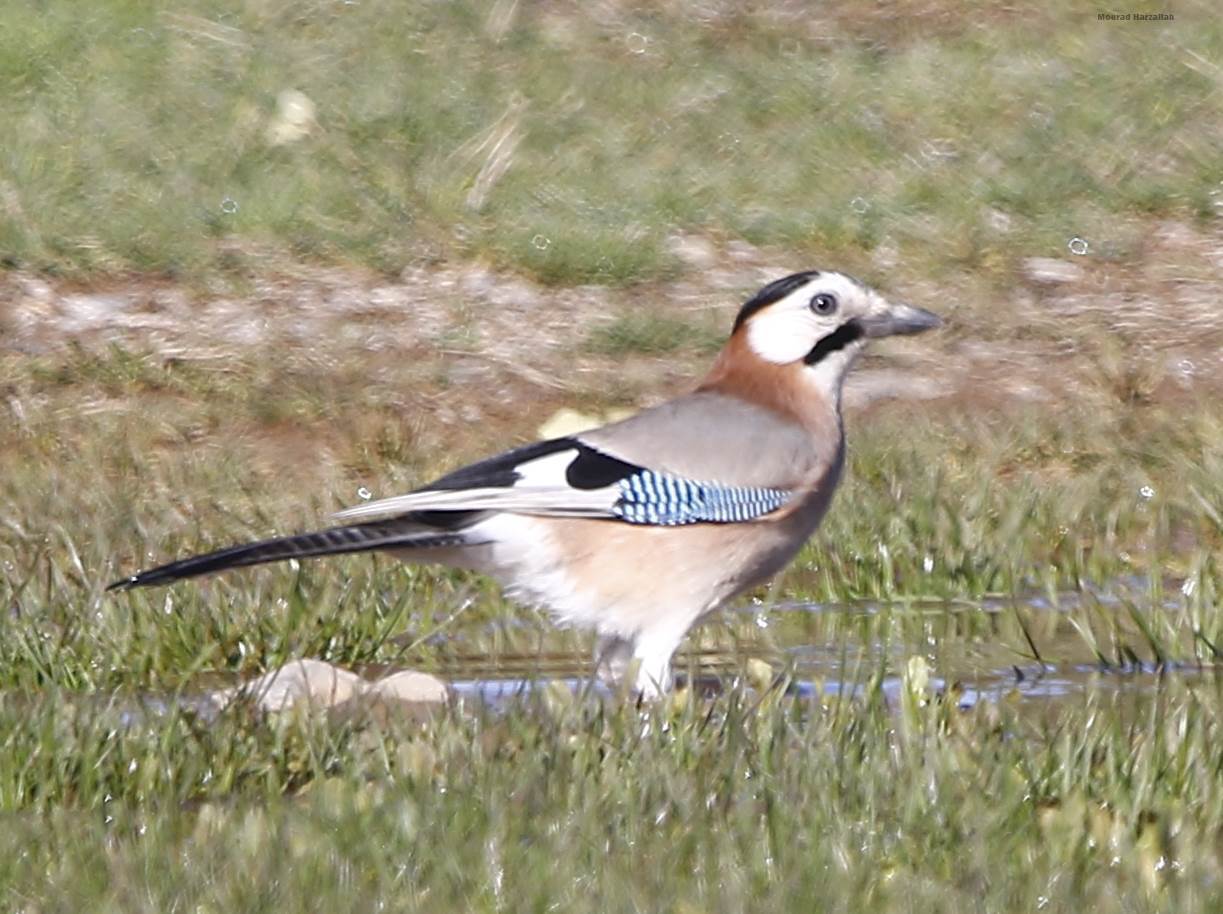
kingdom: Animalia
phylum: Chordata
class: Aves
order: Passeriformes
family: Corvidae
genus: Garrulus
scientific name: Garrulus glandarius
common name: Eurasian jay
